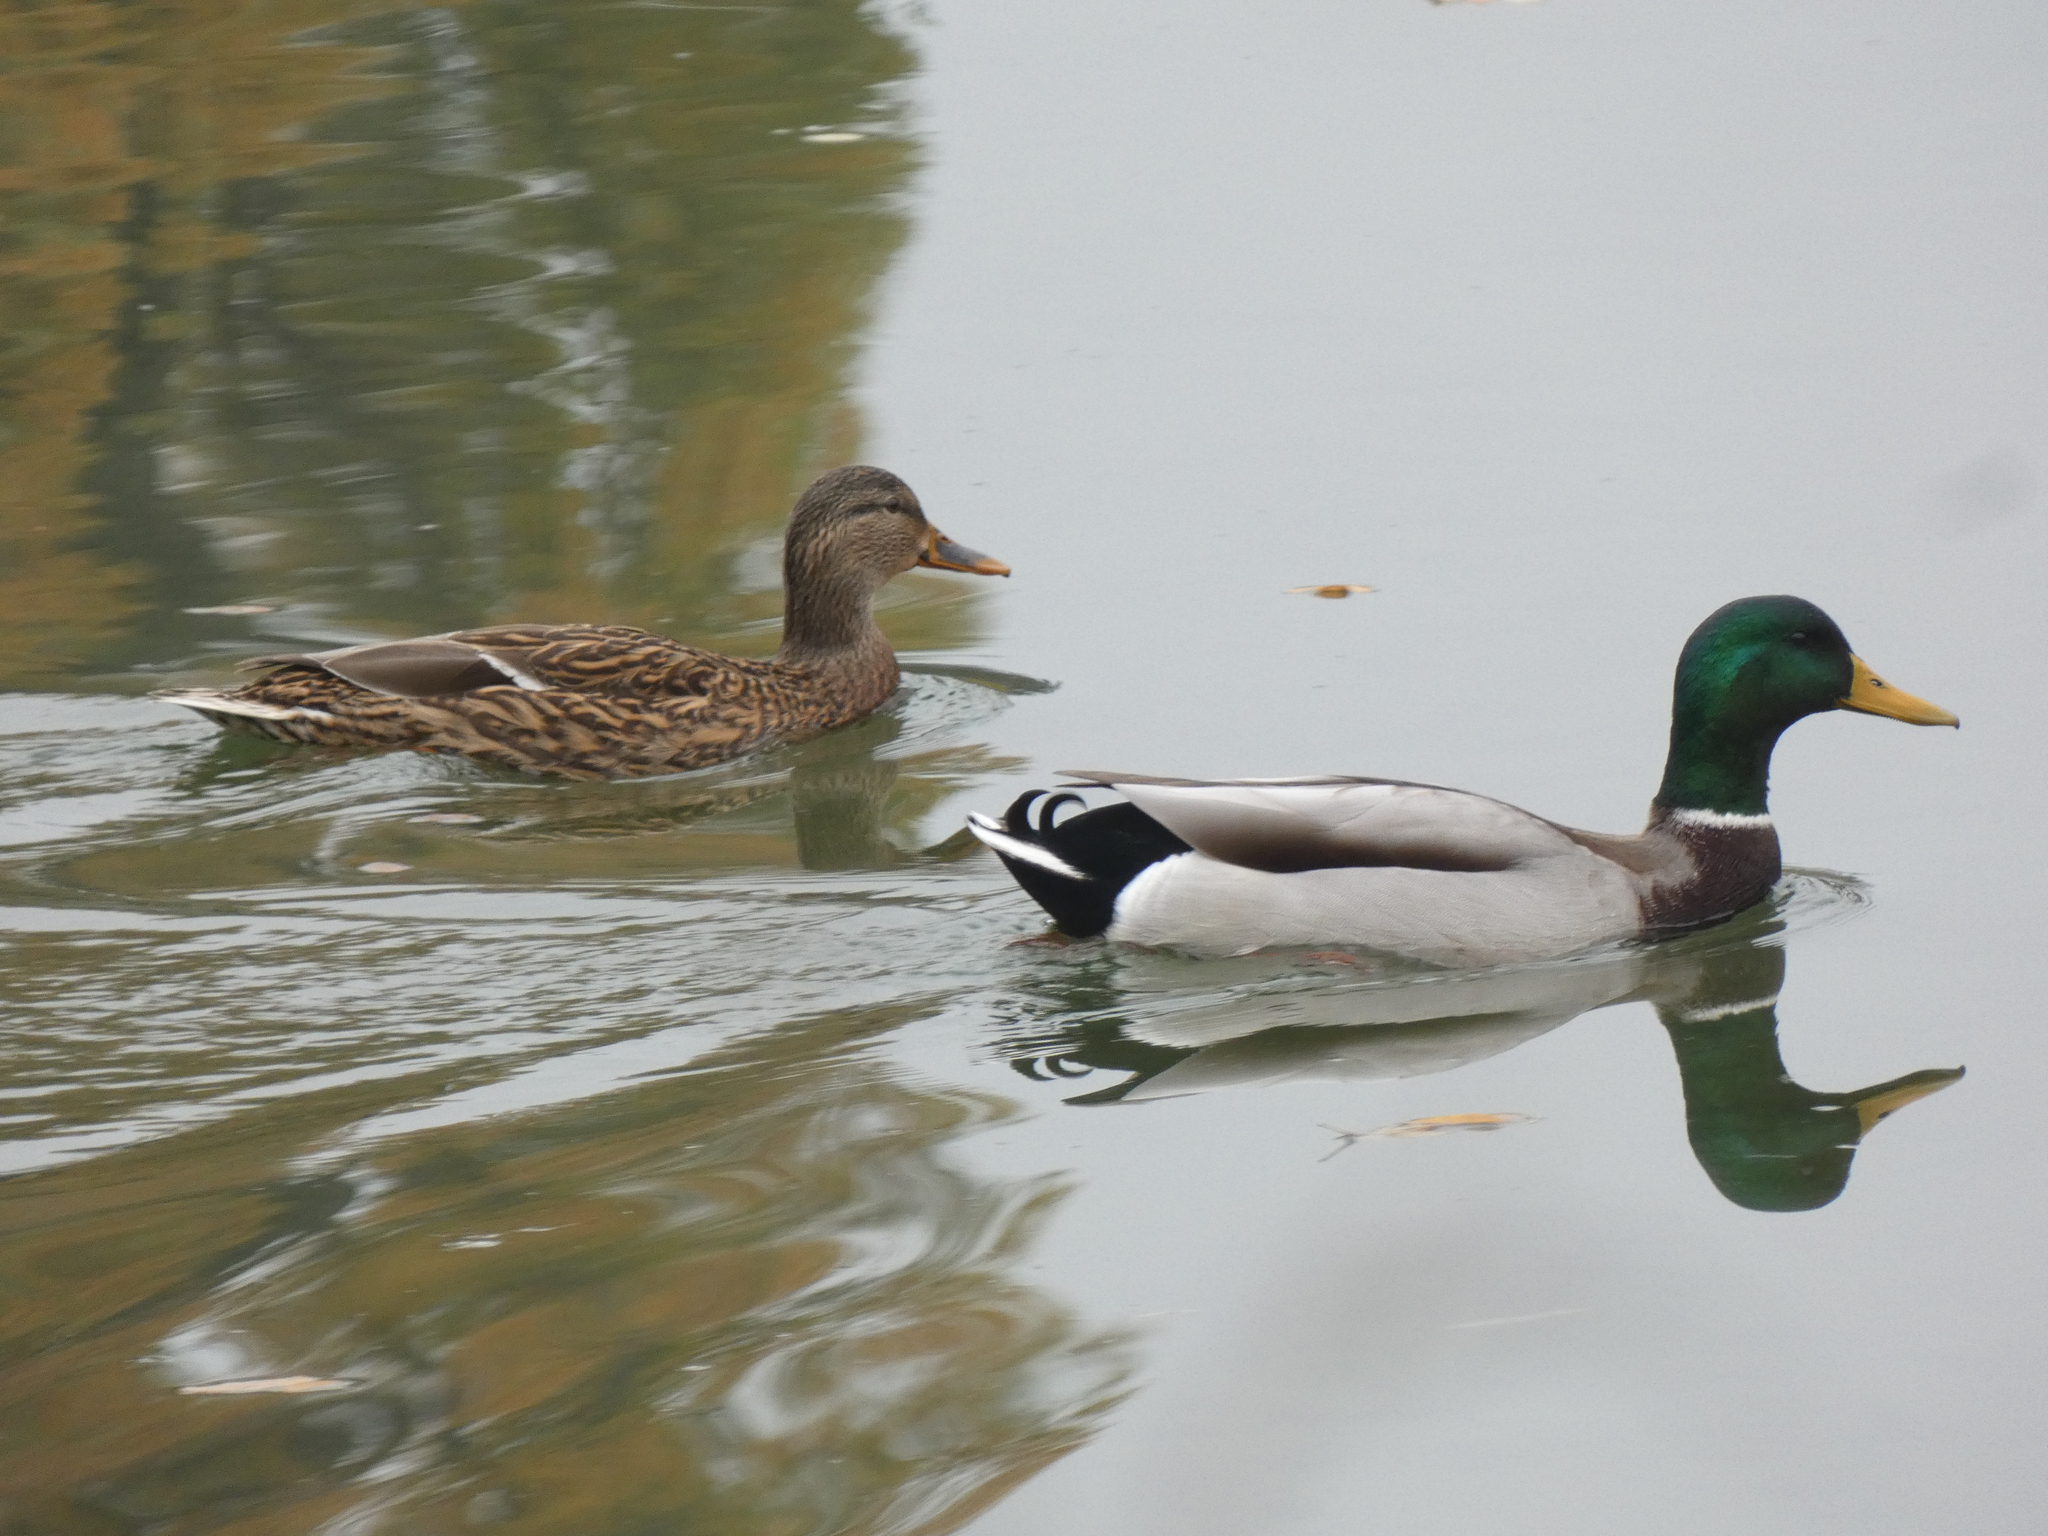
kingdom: Animalia
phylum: Chordata
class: Aves
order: Anseriformes
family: Anatidae
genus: Anas
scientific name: Anas platyrhynchos
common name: Mallard
